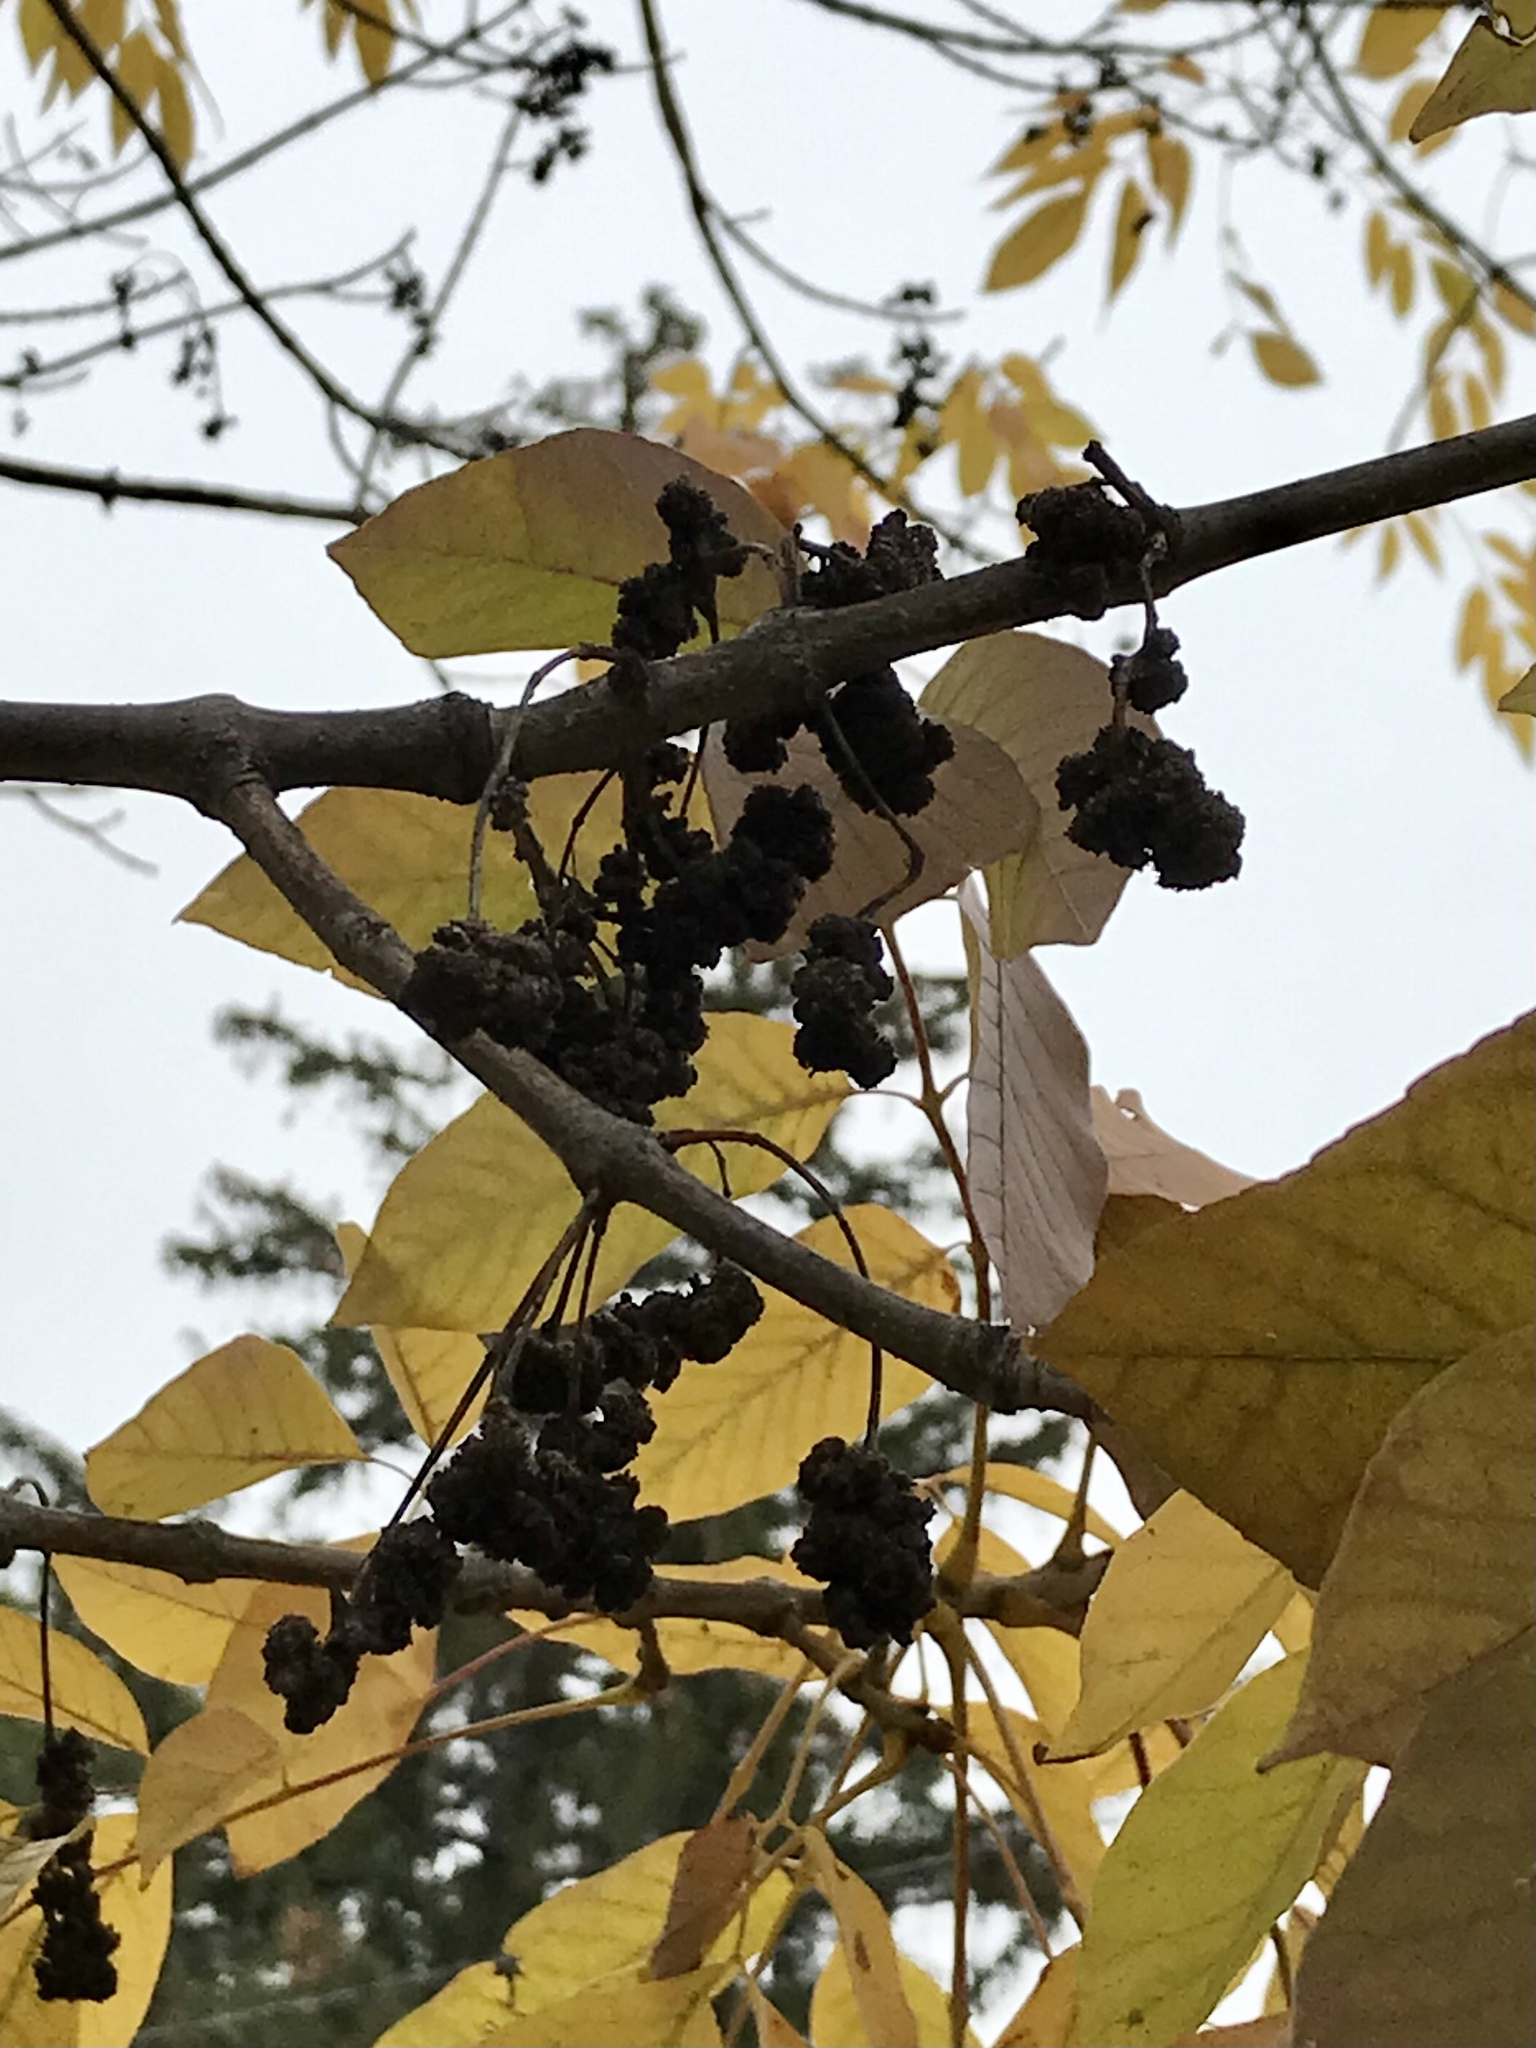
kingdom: Animalia
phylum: Arthropoda
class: Arachnida
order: Trombidiformes
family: Eriophyidae
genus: Aceria
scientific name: Aceria fraxiniflora
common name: Ash flower gall mite
